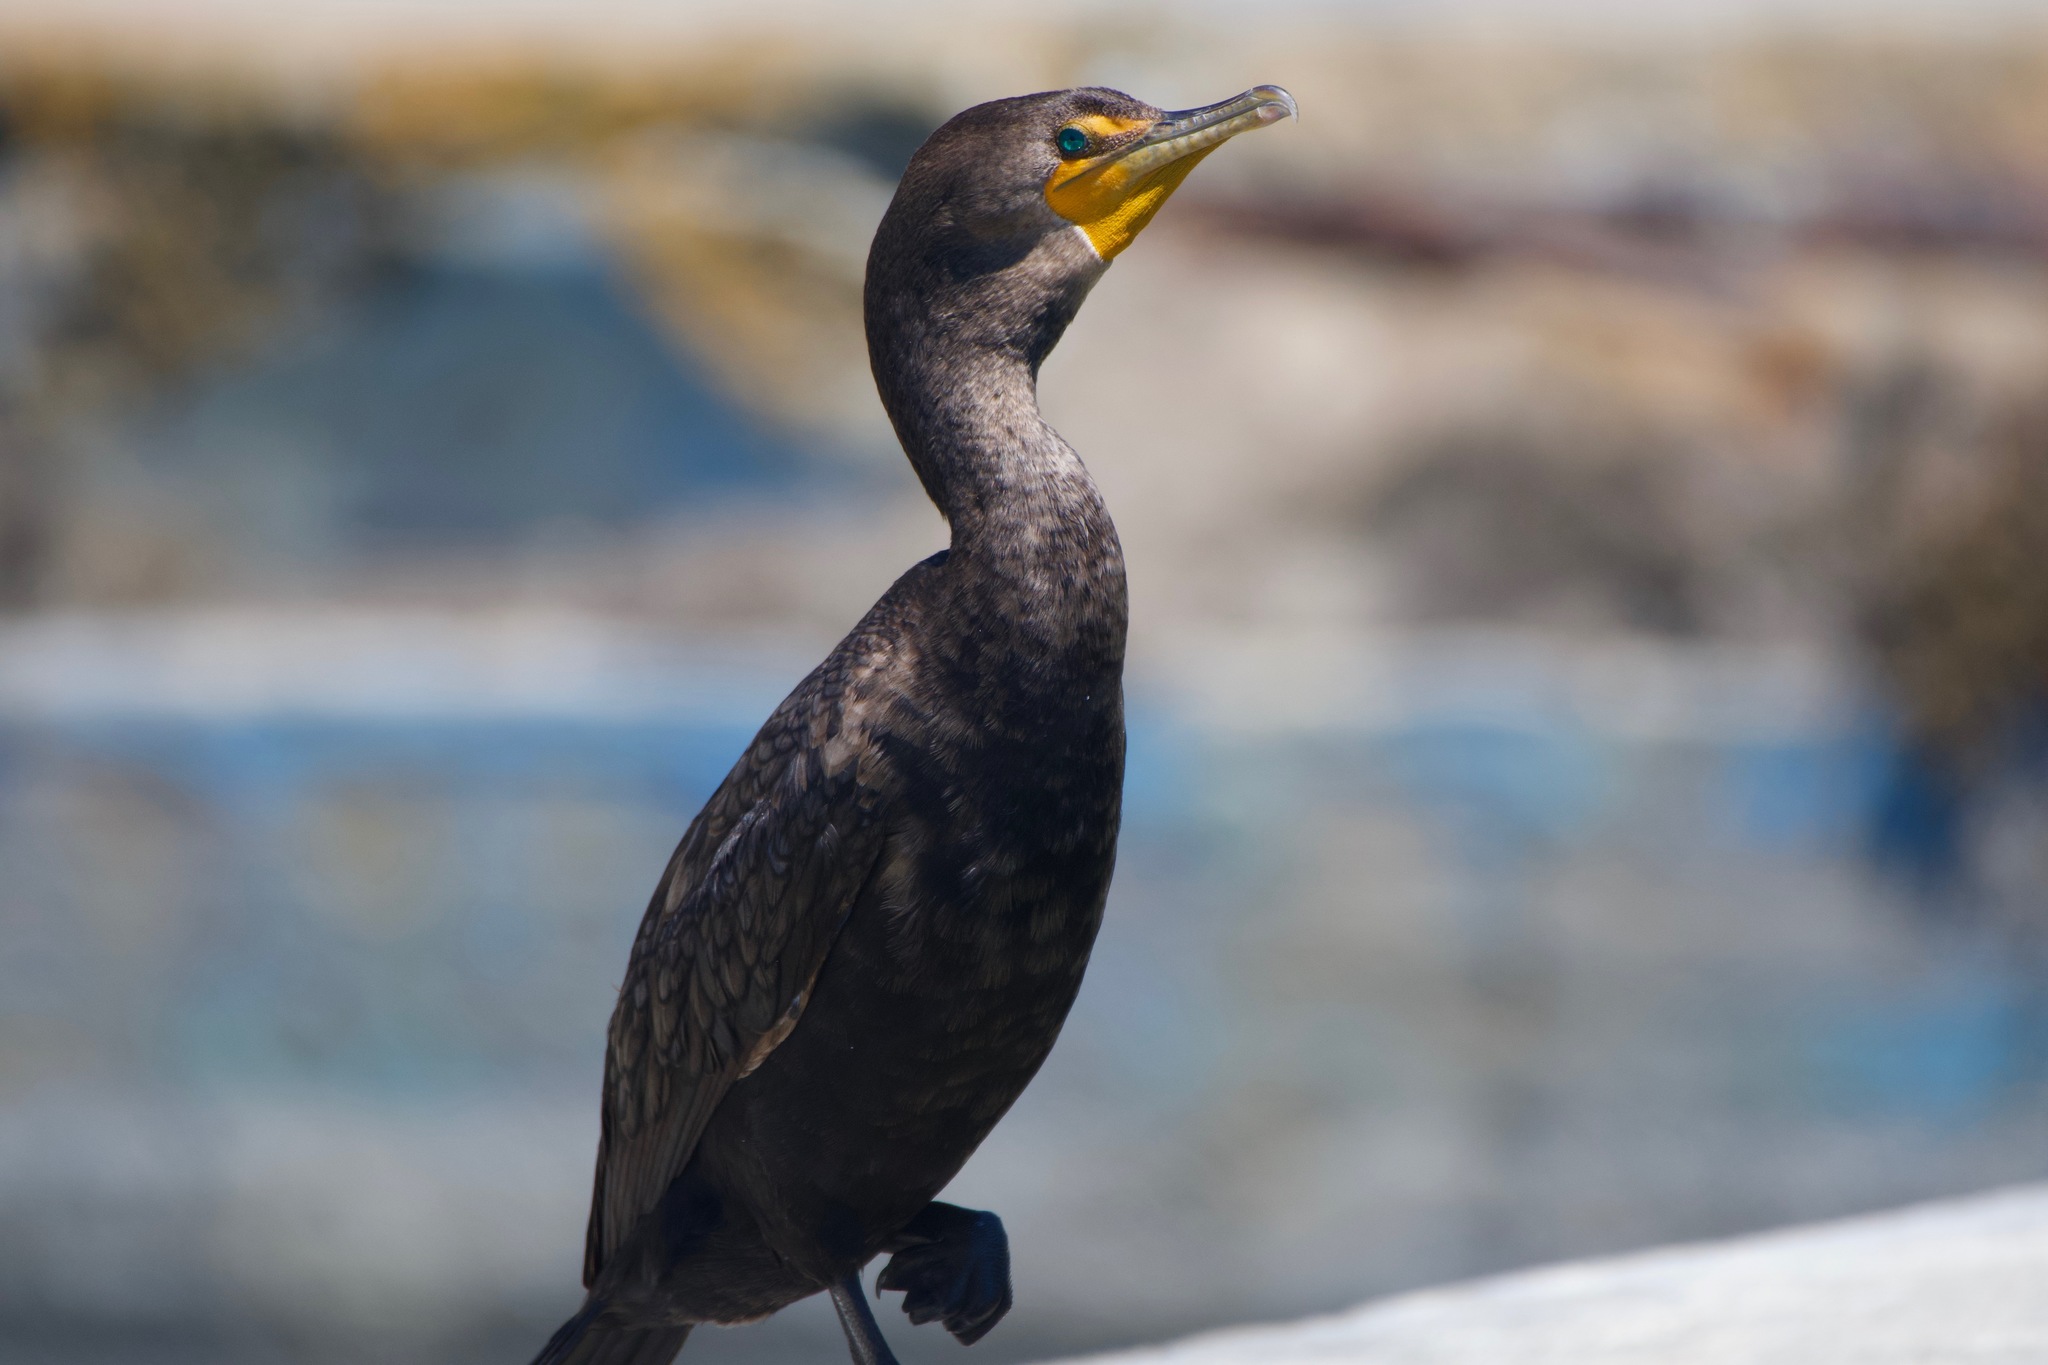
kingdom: Animalia
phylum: Chordata
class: Aves
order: Suliformes
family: Phalacrocoracidae
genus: Phalacrocorax
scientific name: Phalacrocorax auritus
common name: Double-crested cormorant
